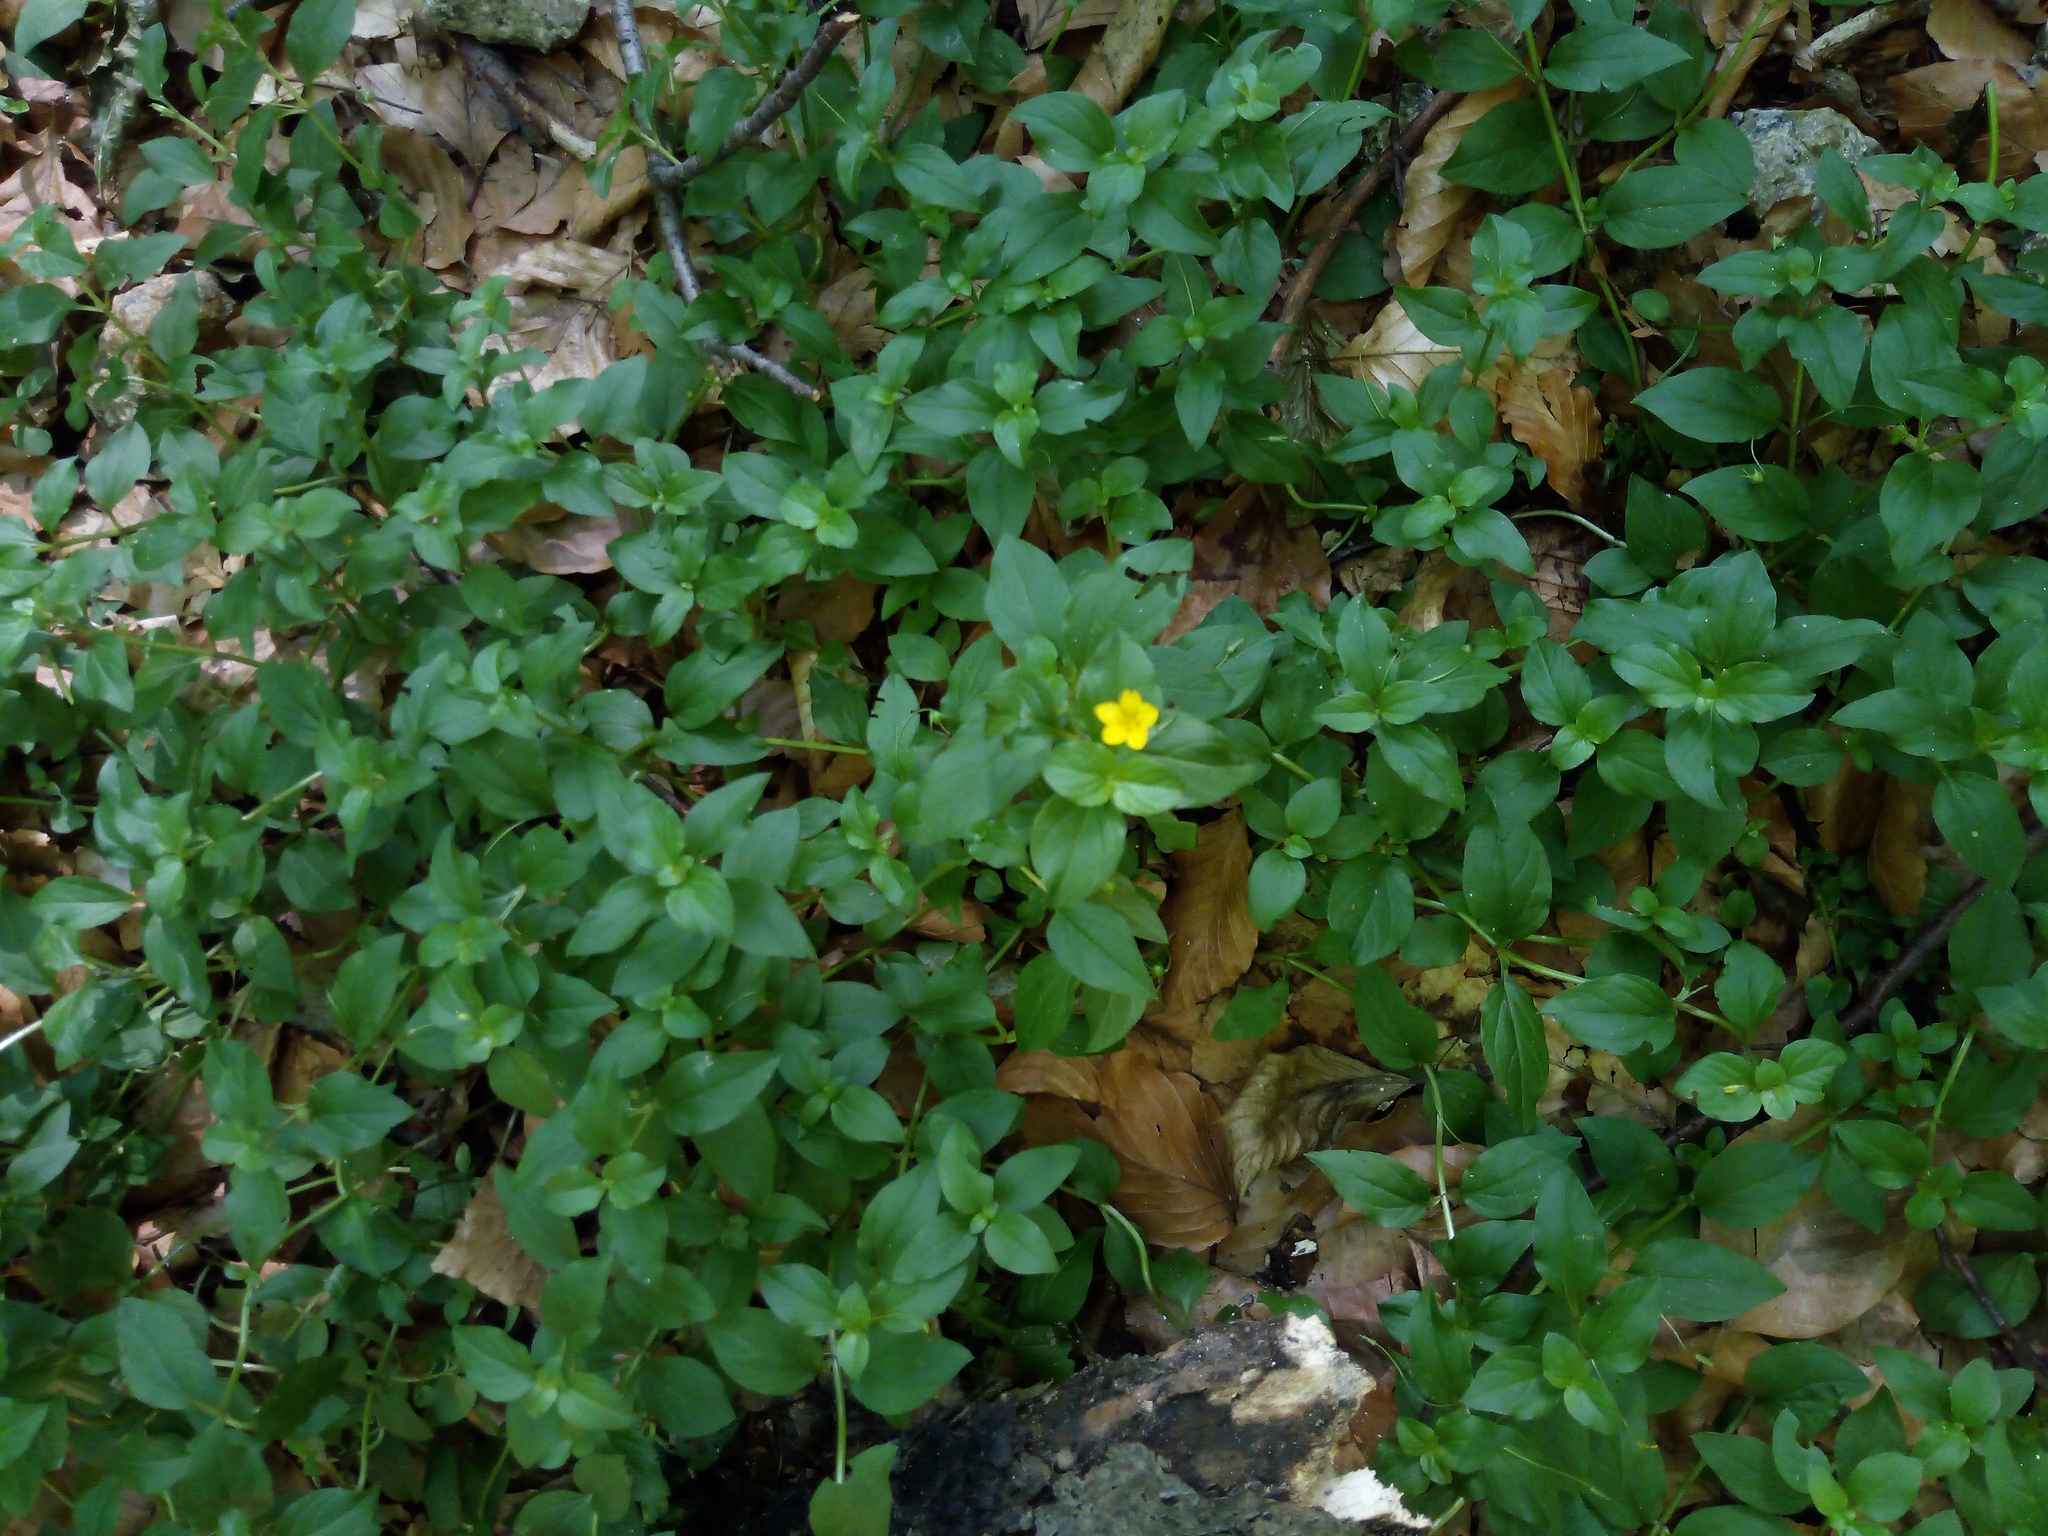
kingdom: Plantae
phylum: Tracheophyta
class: Magnoliopsida
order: Ericales
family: Primulaceae
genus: Lysimachia
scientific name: Lysimachia nemorum
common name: Yellow pimpernel
